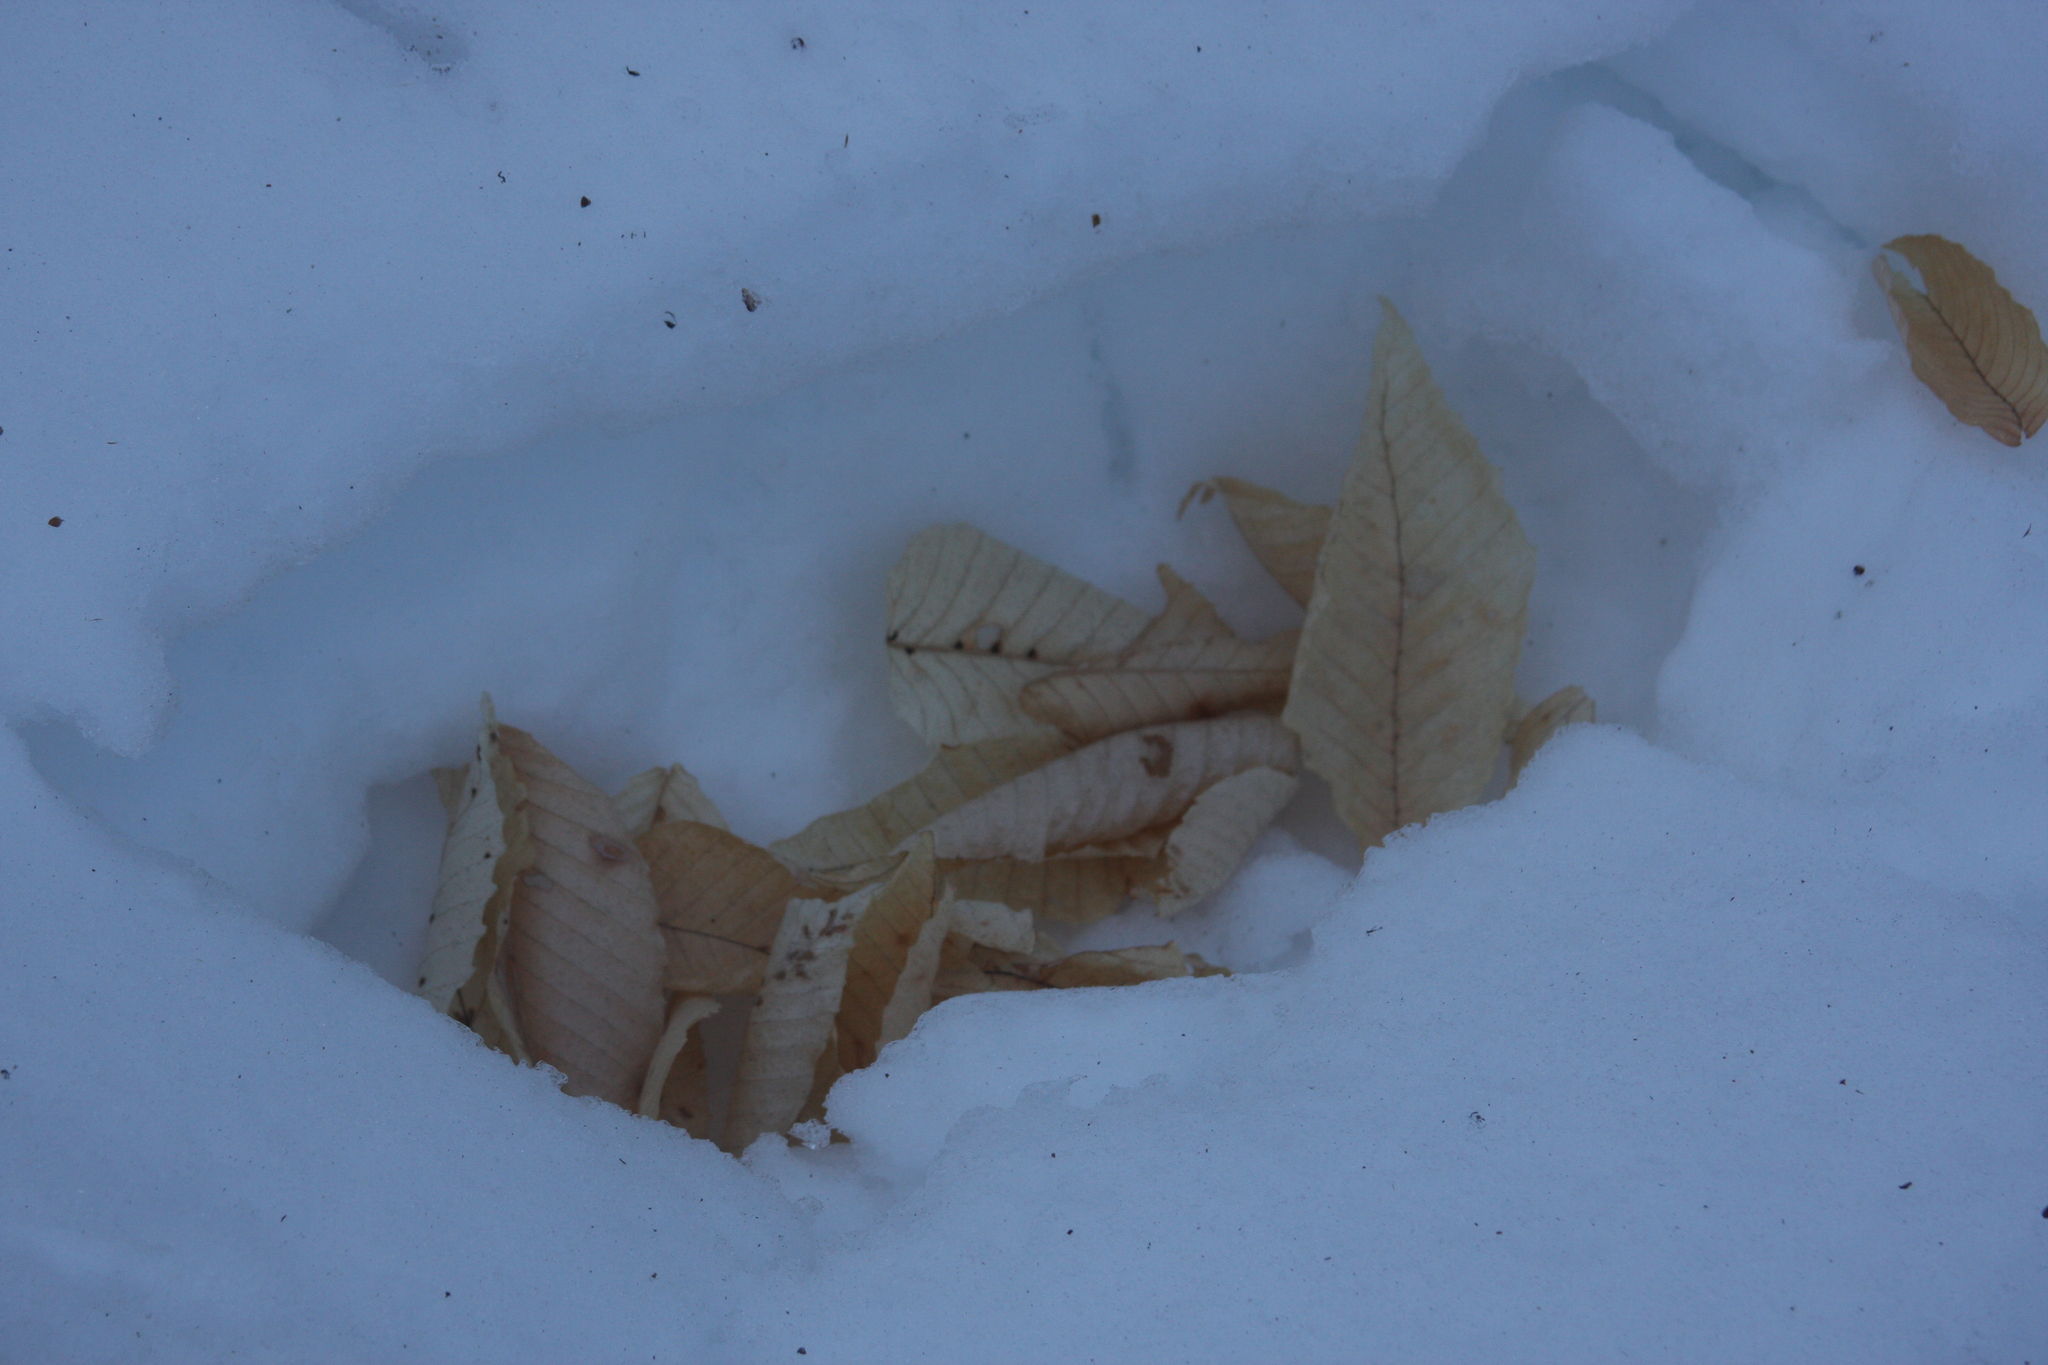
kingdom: Plantae
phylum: Tracheophyta
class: Magnoliopsida
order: Fagales
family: Fagaceae
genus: Fagus
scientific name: Fagus grandifolia
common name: American beech
